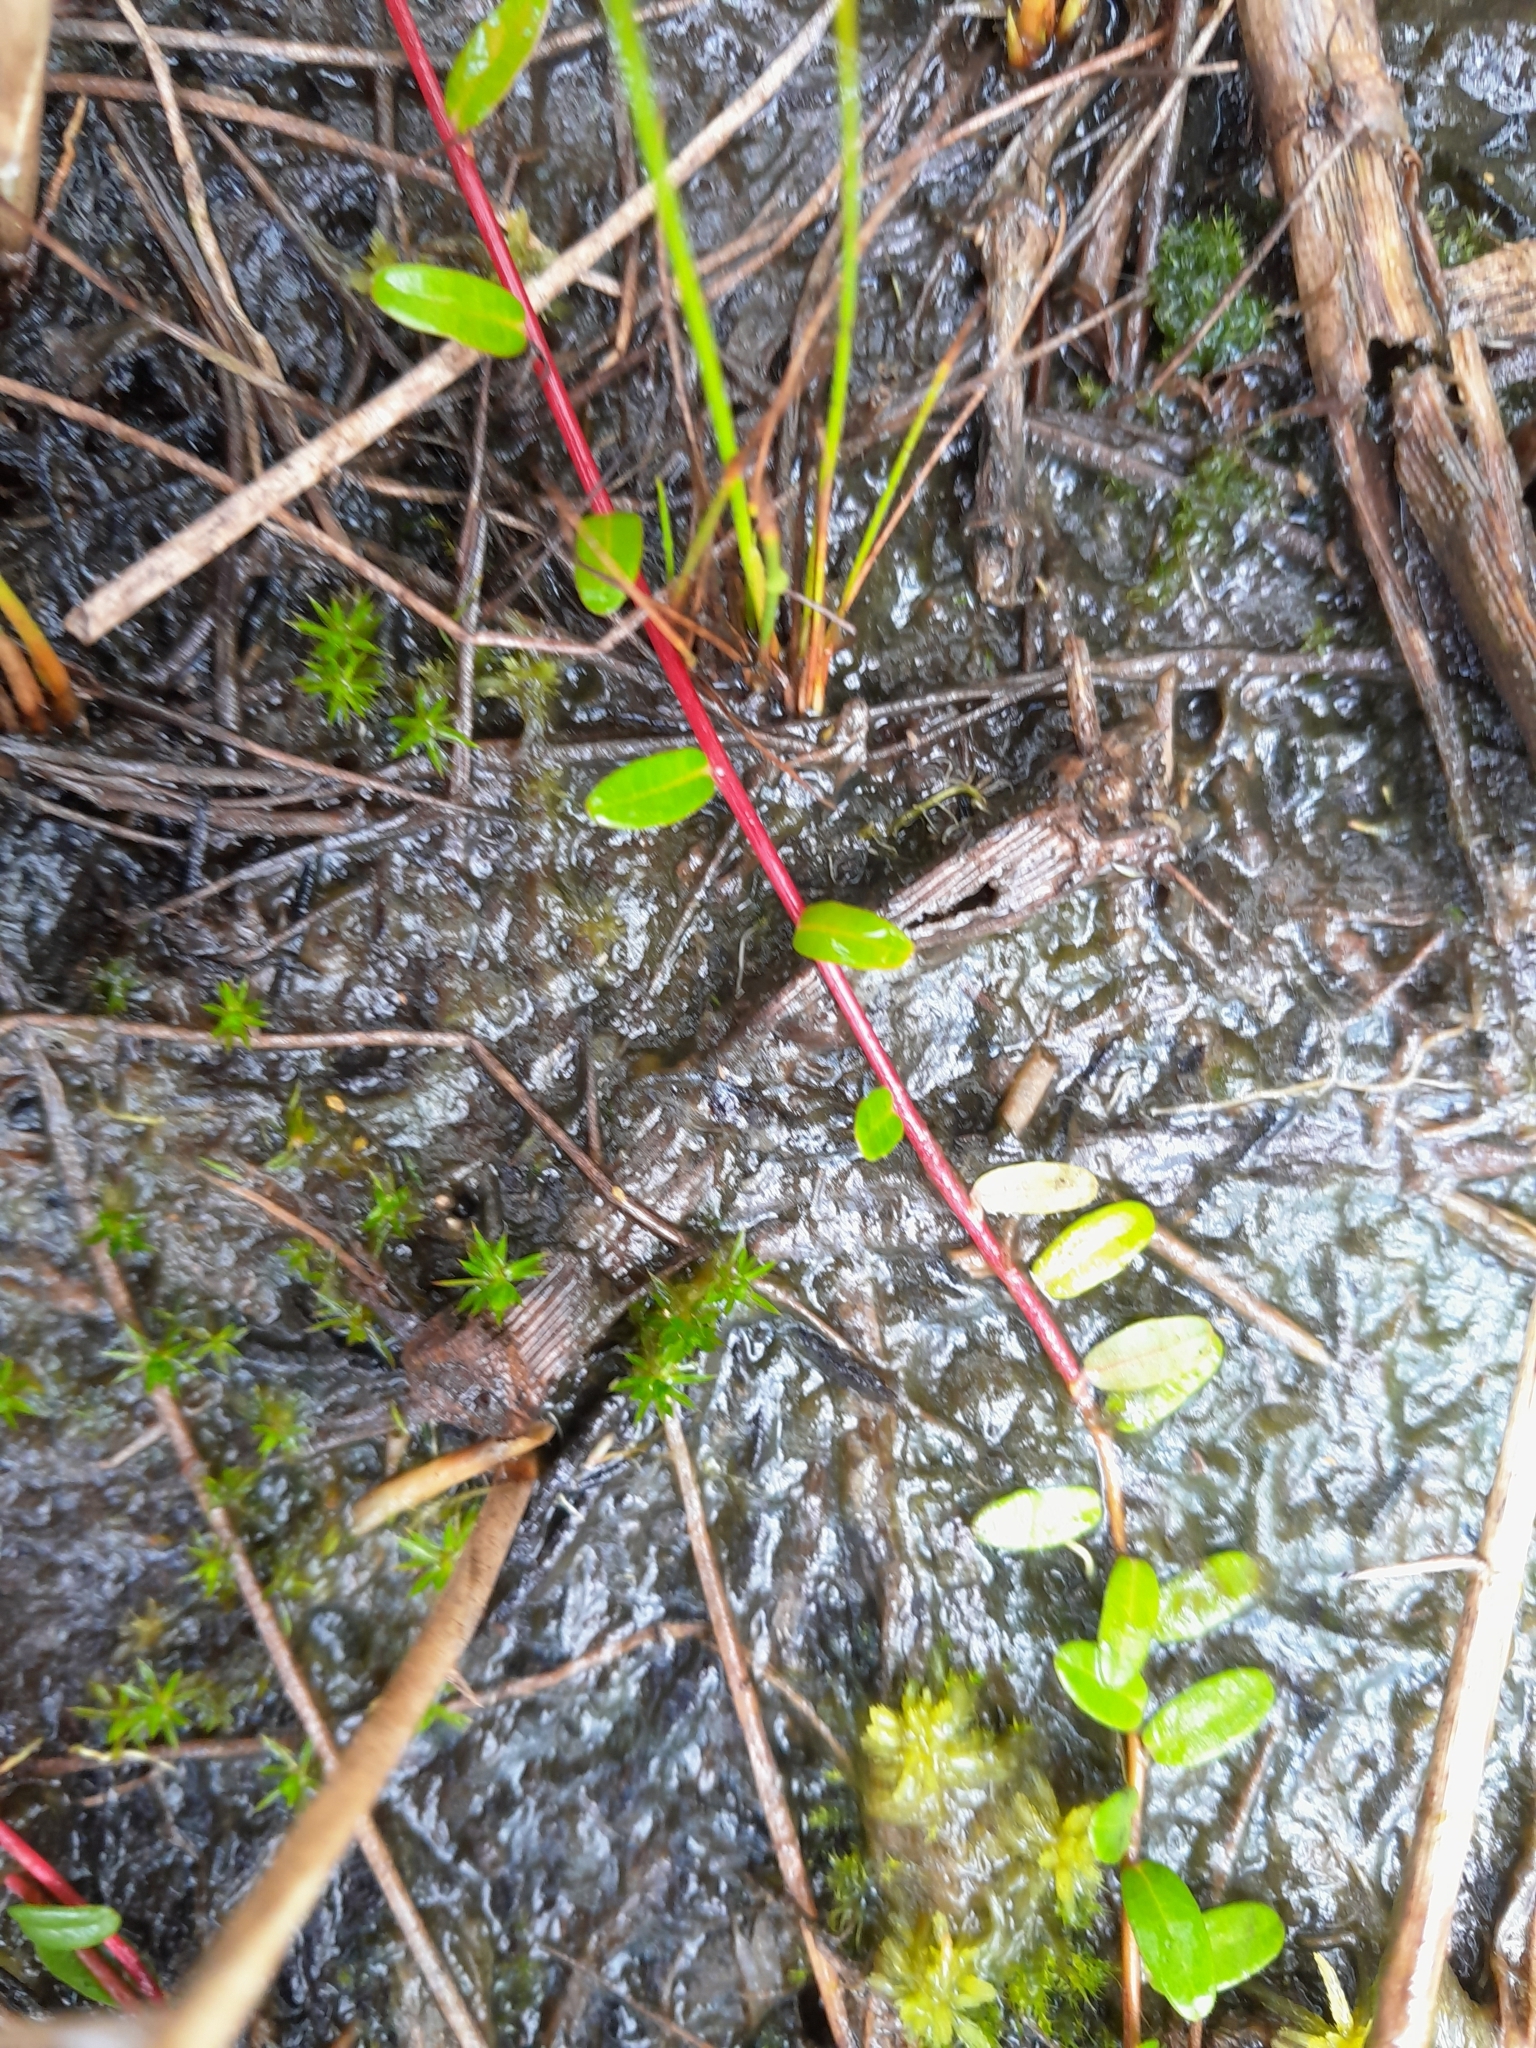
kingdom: Plantae
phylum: Tracheophyta
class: Magnoliopsida
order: Ericales
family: Ericaceae
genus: Vaccinium
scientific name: Vaccinium macrocarpon
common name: American cranberry
